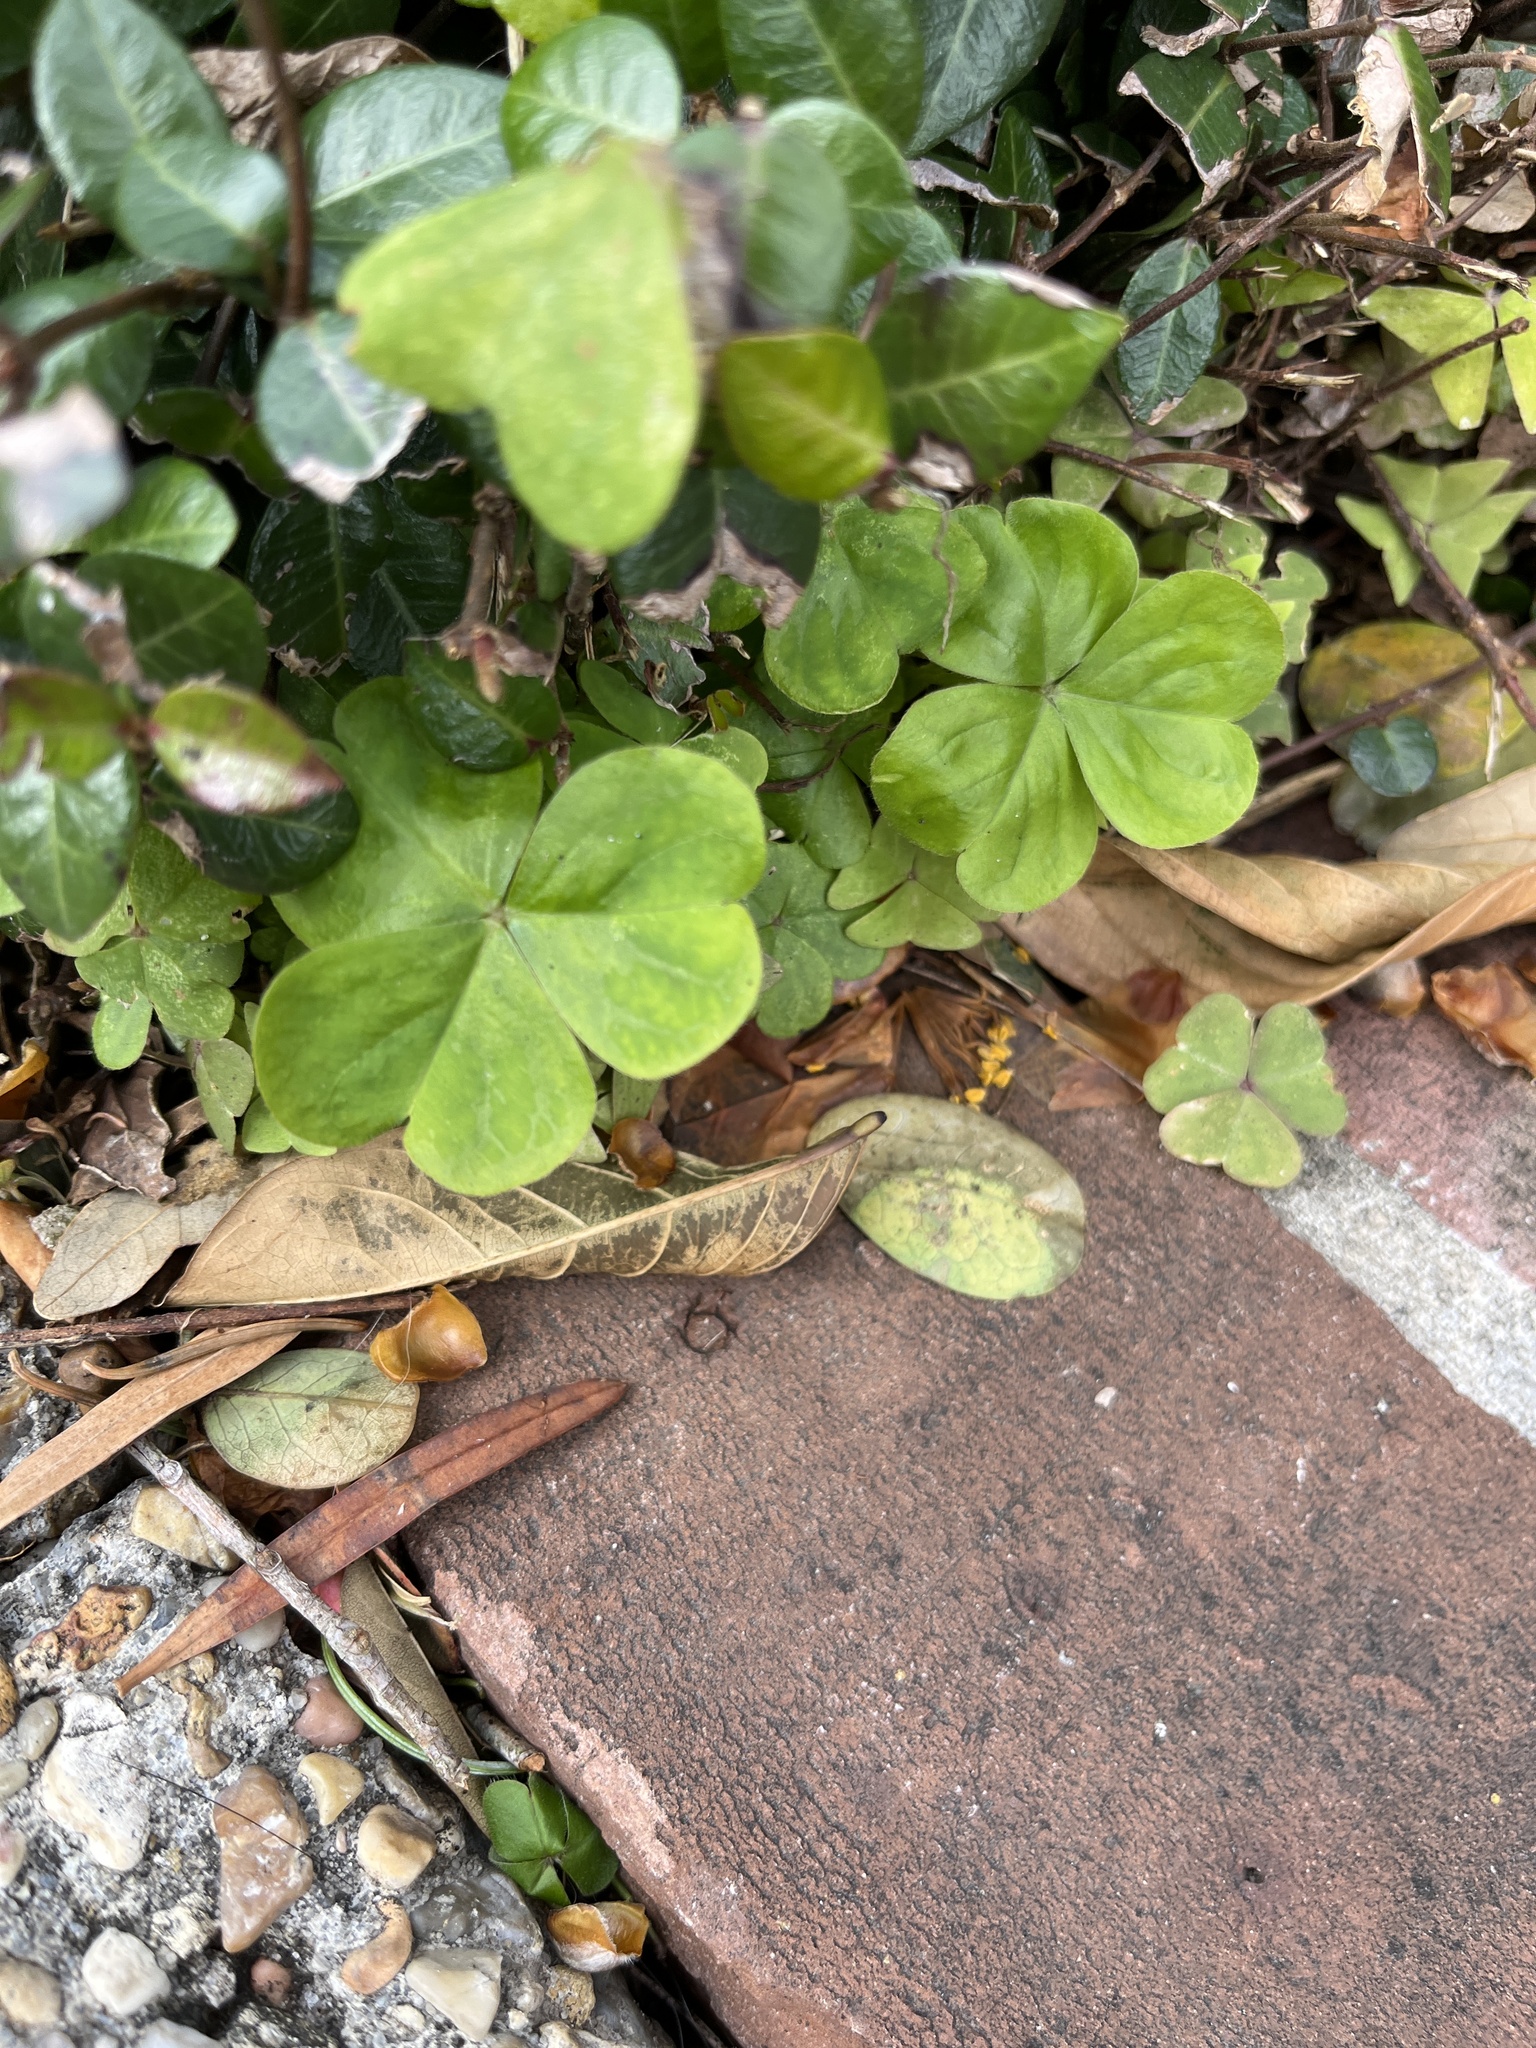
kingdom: Plantae
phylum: Tracheophyta
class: Magnoliopsida
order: Oxalidales
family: Oxalidaceae
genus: Oxalis
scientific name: Oxalis debilis
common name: Large-flowered pink-sorrel
